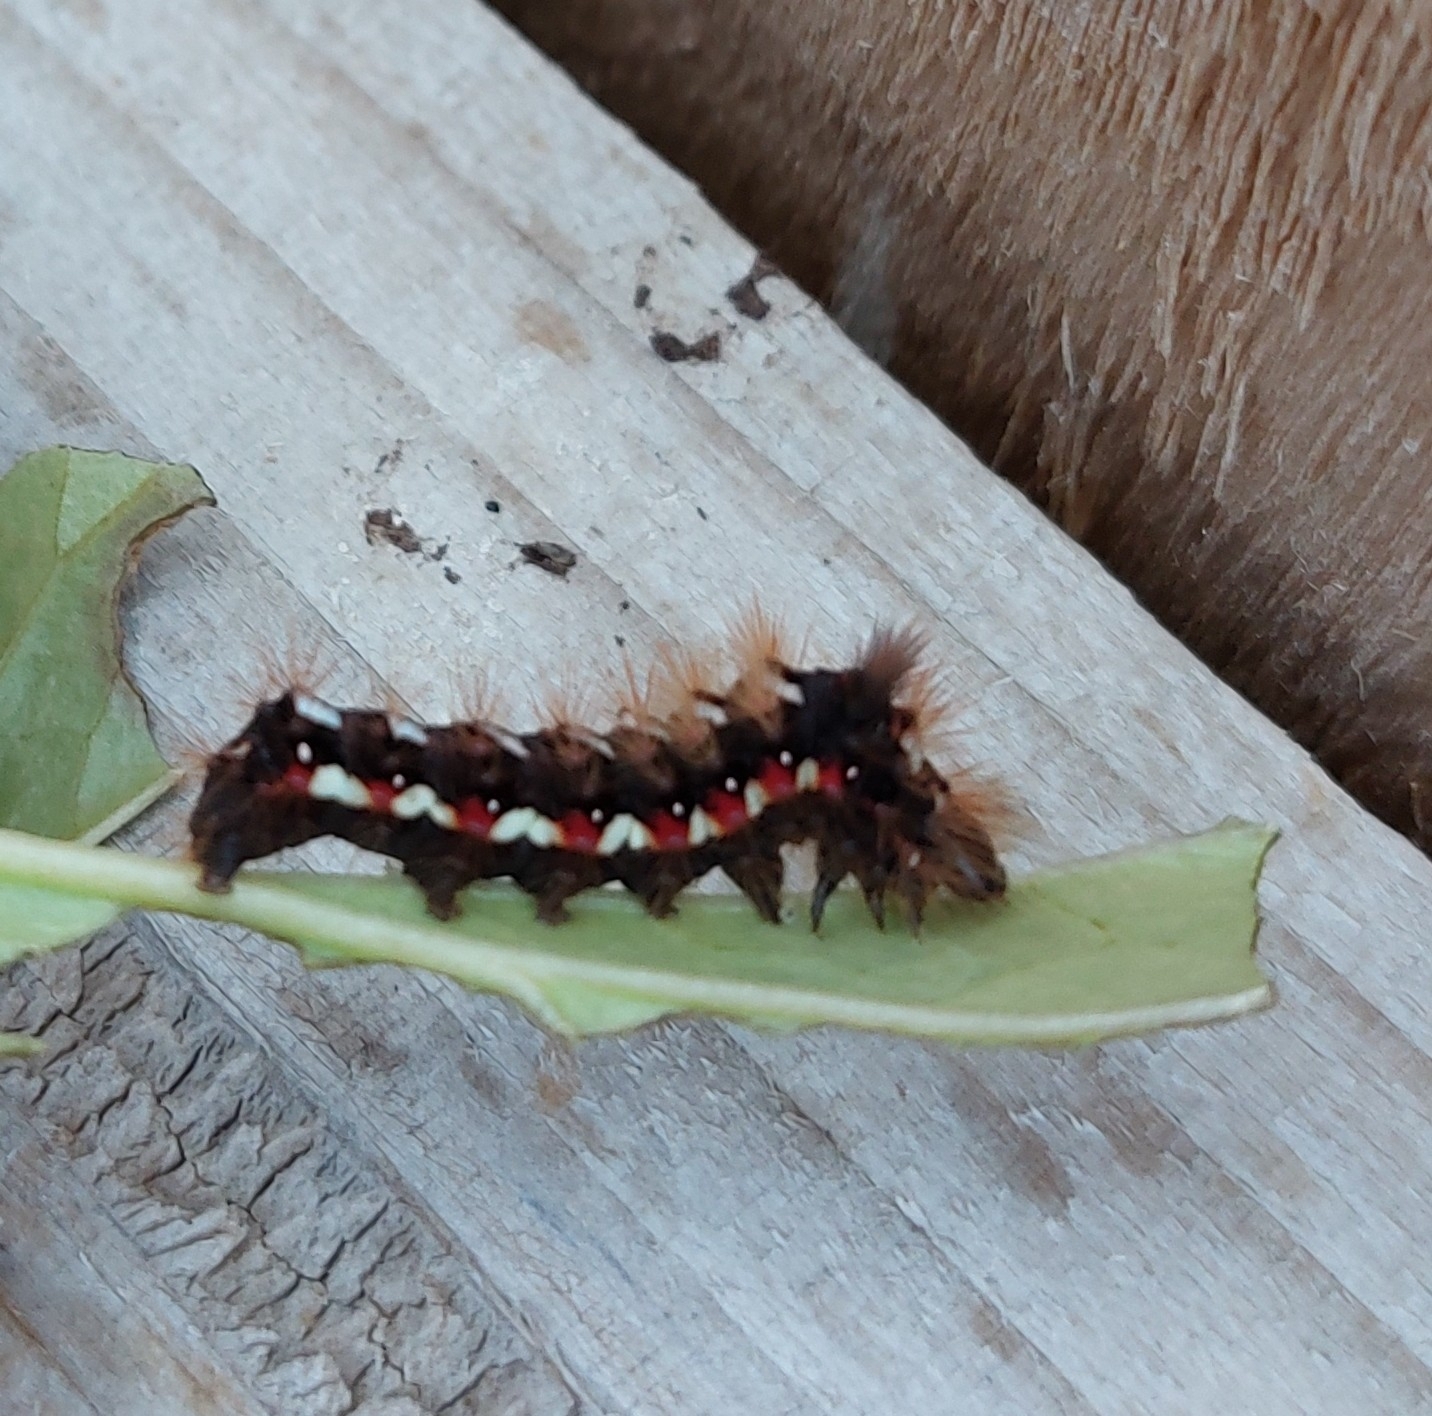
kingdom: Animalia
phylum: Arthropoda
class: Insecta
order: Lepidoptera
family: Noctuidae
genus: Acronicta
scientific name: Acronicta rumicis
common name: Knot grass
